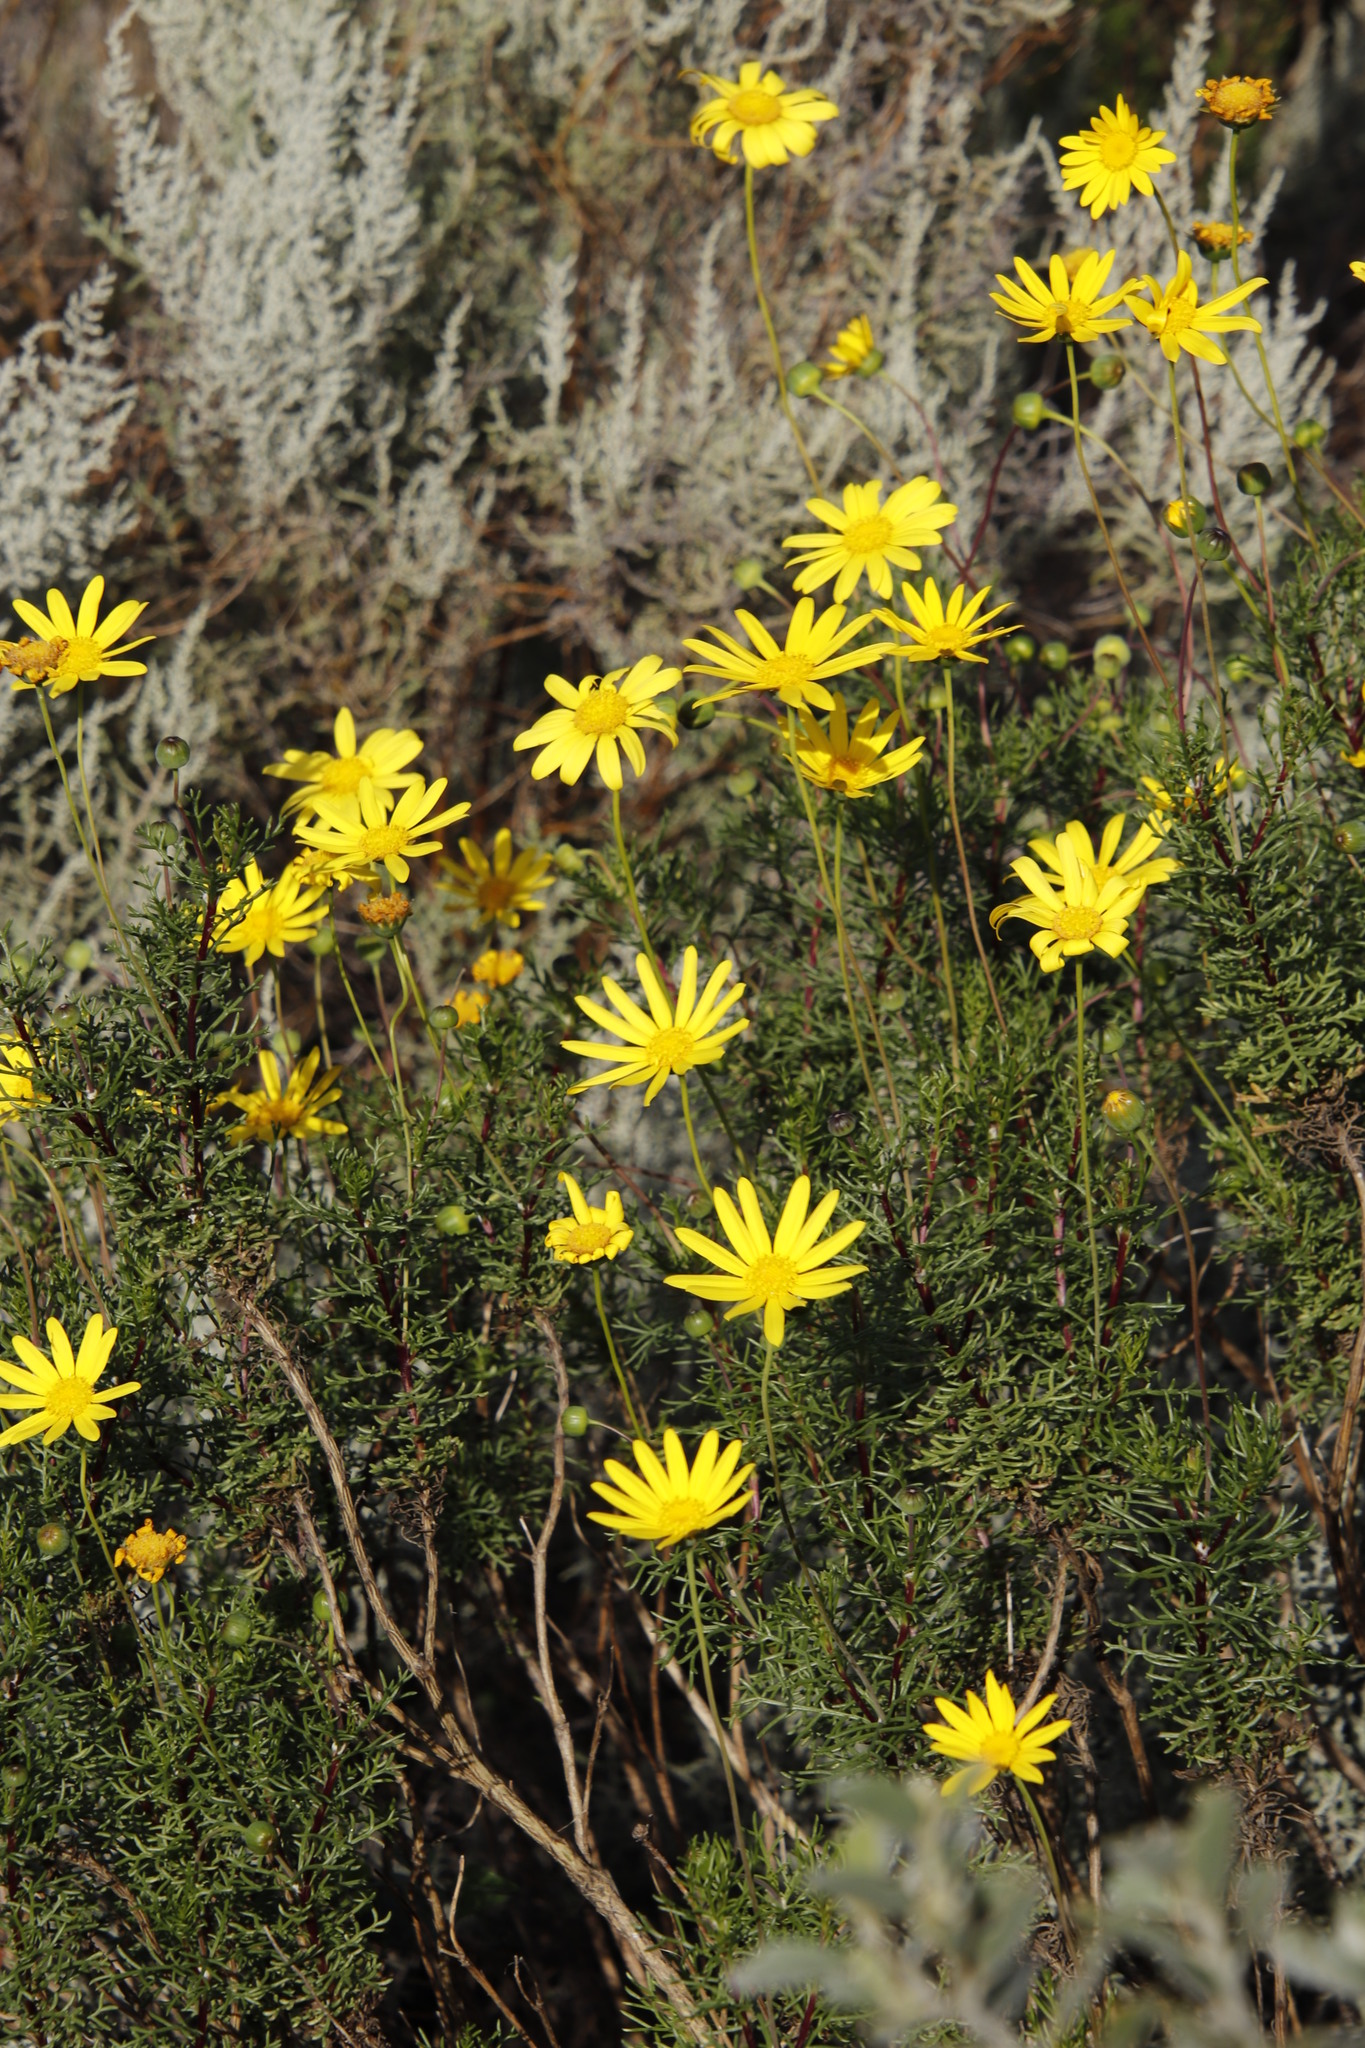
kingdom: Plantae
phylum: Tracheophyta
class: Magnoliopsida
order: Asterales
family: Asteraceae
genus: Euryops
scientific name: Euryops abrotanifolius
